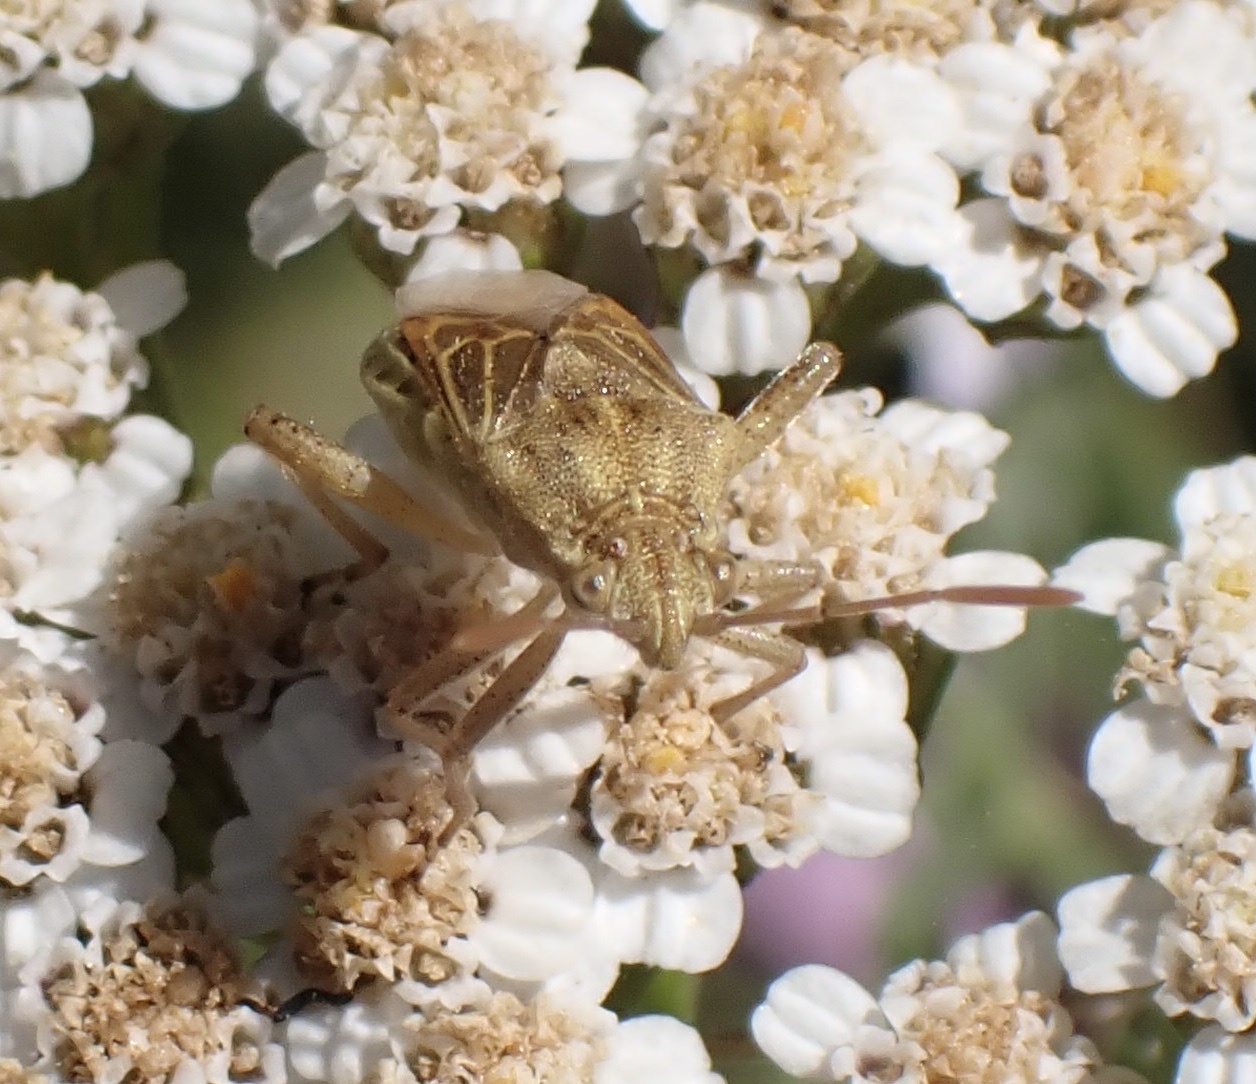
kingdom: Animalia
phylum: Arthropoda
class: Insecta
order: Hemiptera
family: Rhopalidae
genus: Stictopleurus
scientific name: Stictopleurus abutilon
